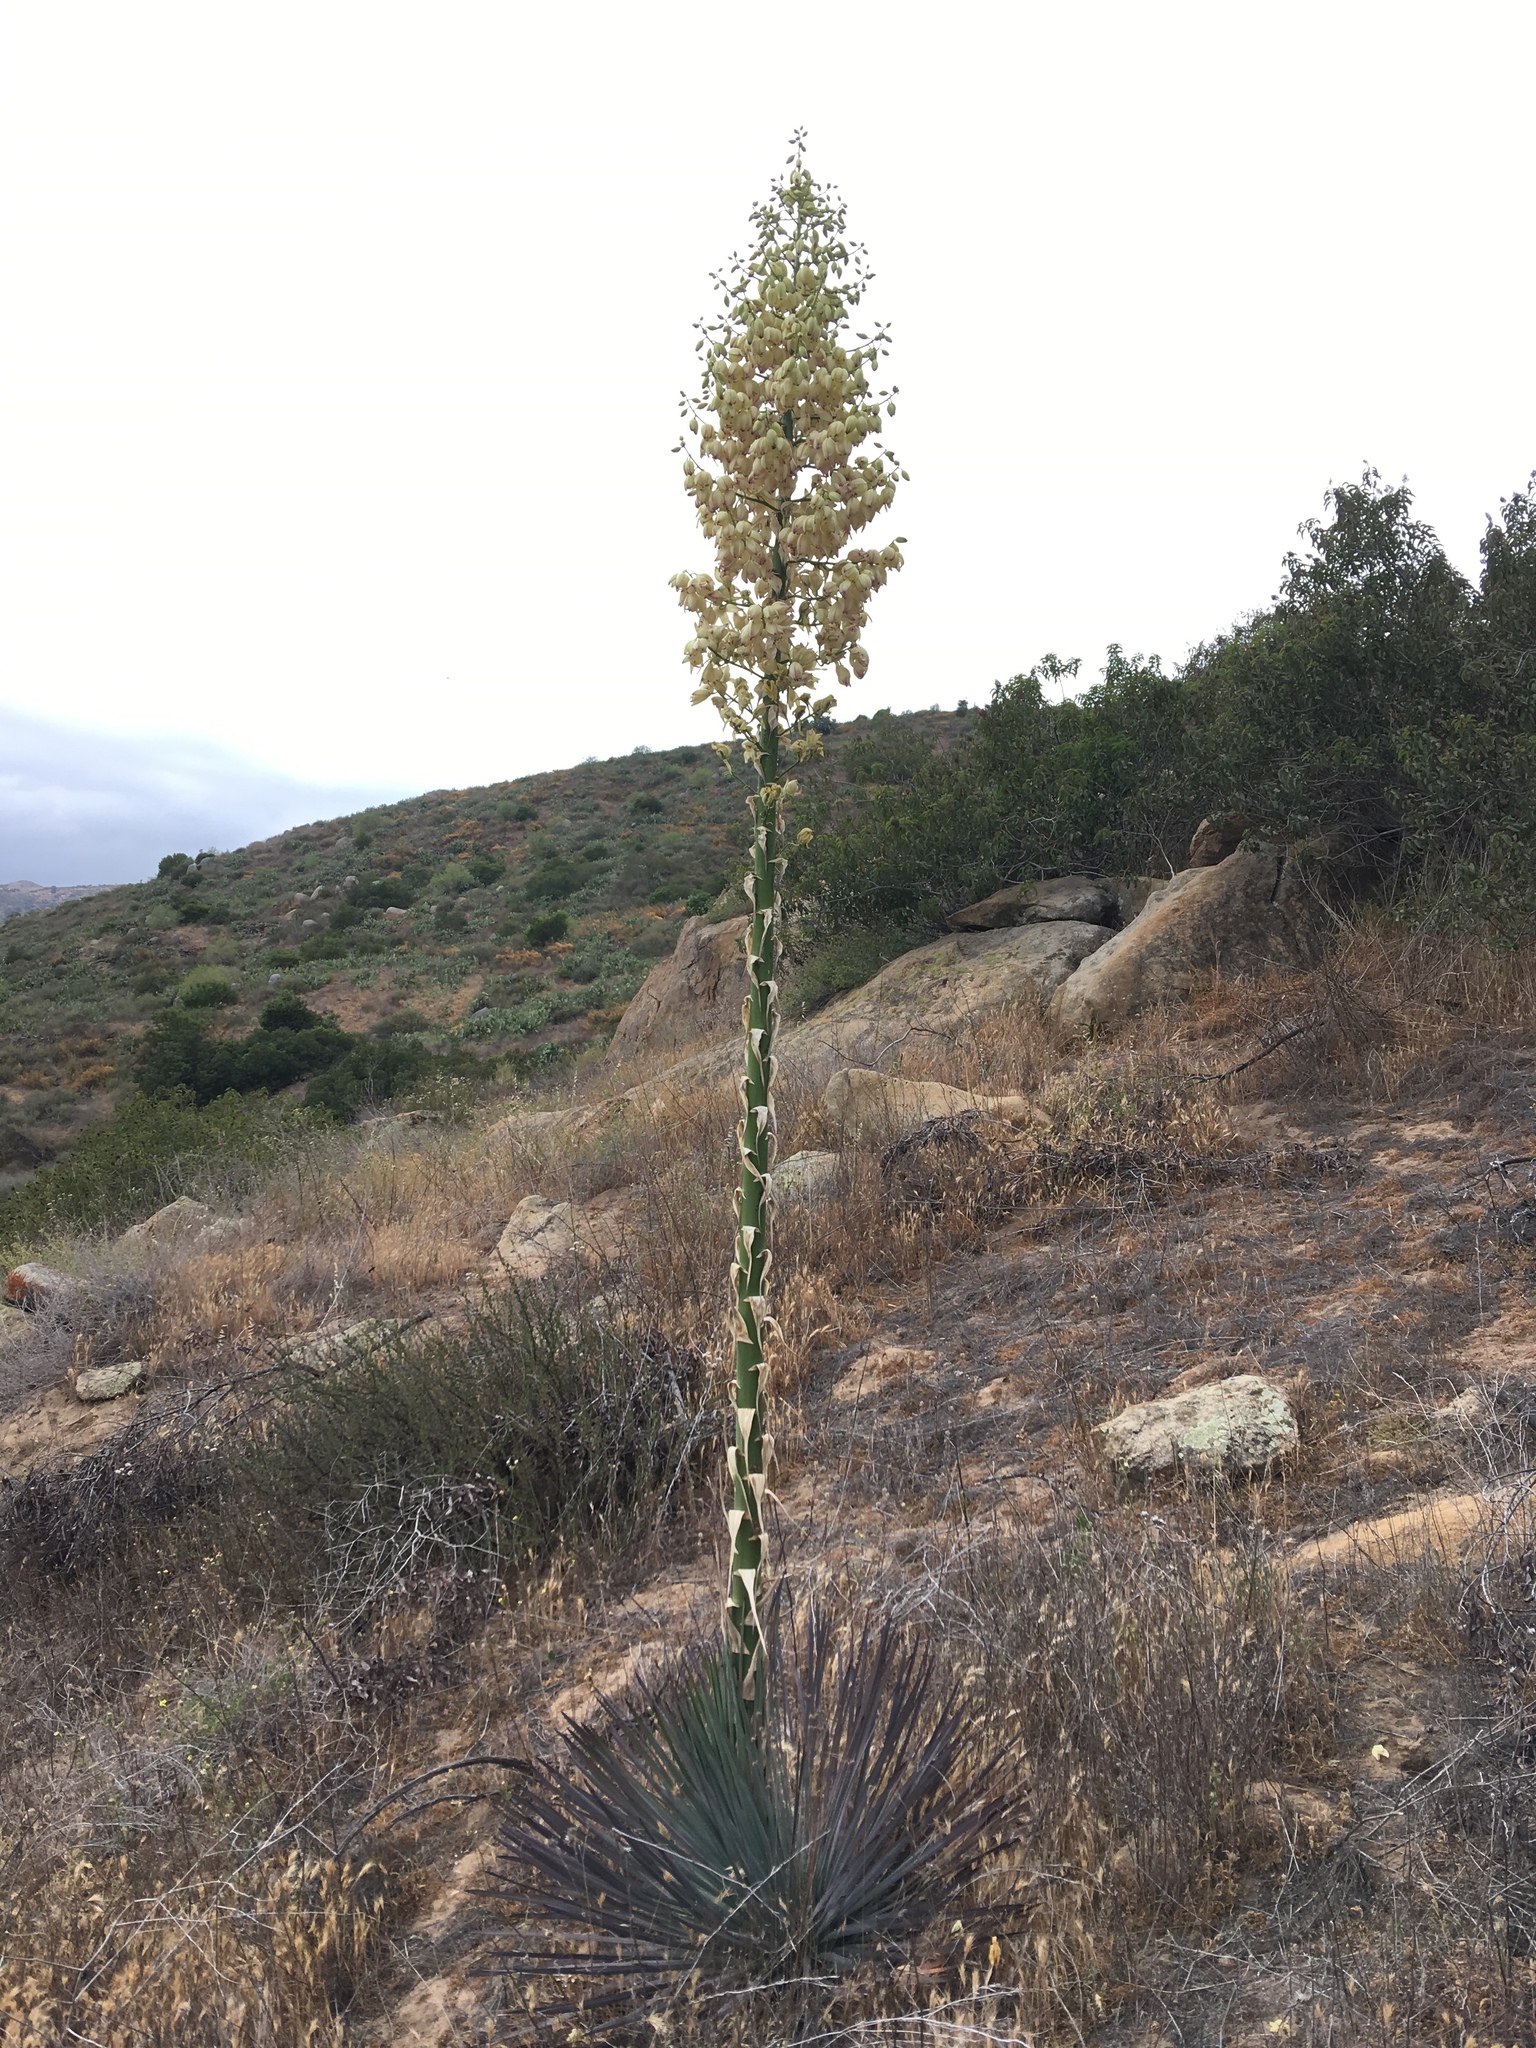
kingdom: Plantae
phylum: Tracheophyta
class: Liliopsida
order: Asparagales
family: Asparagaceae
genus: Hesperoyucca
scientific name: Hesperoyucca whipplei
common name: Our lord's-candle
